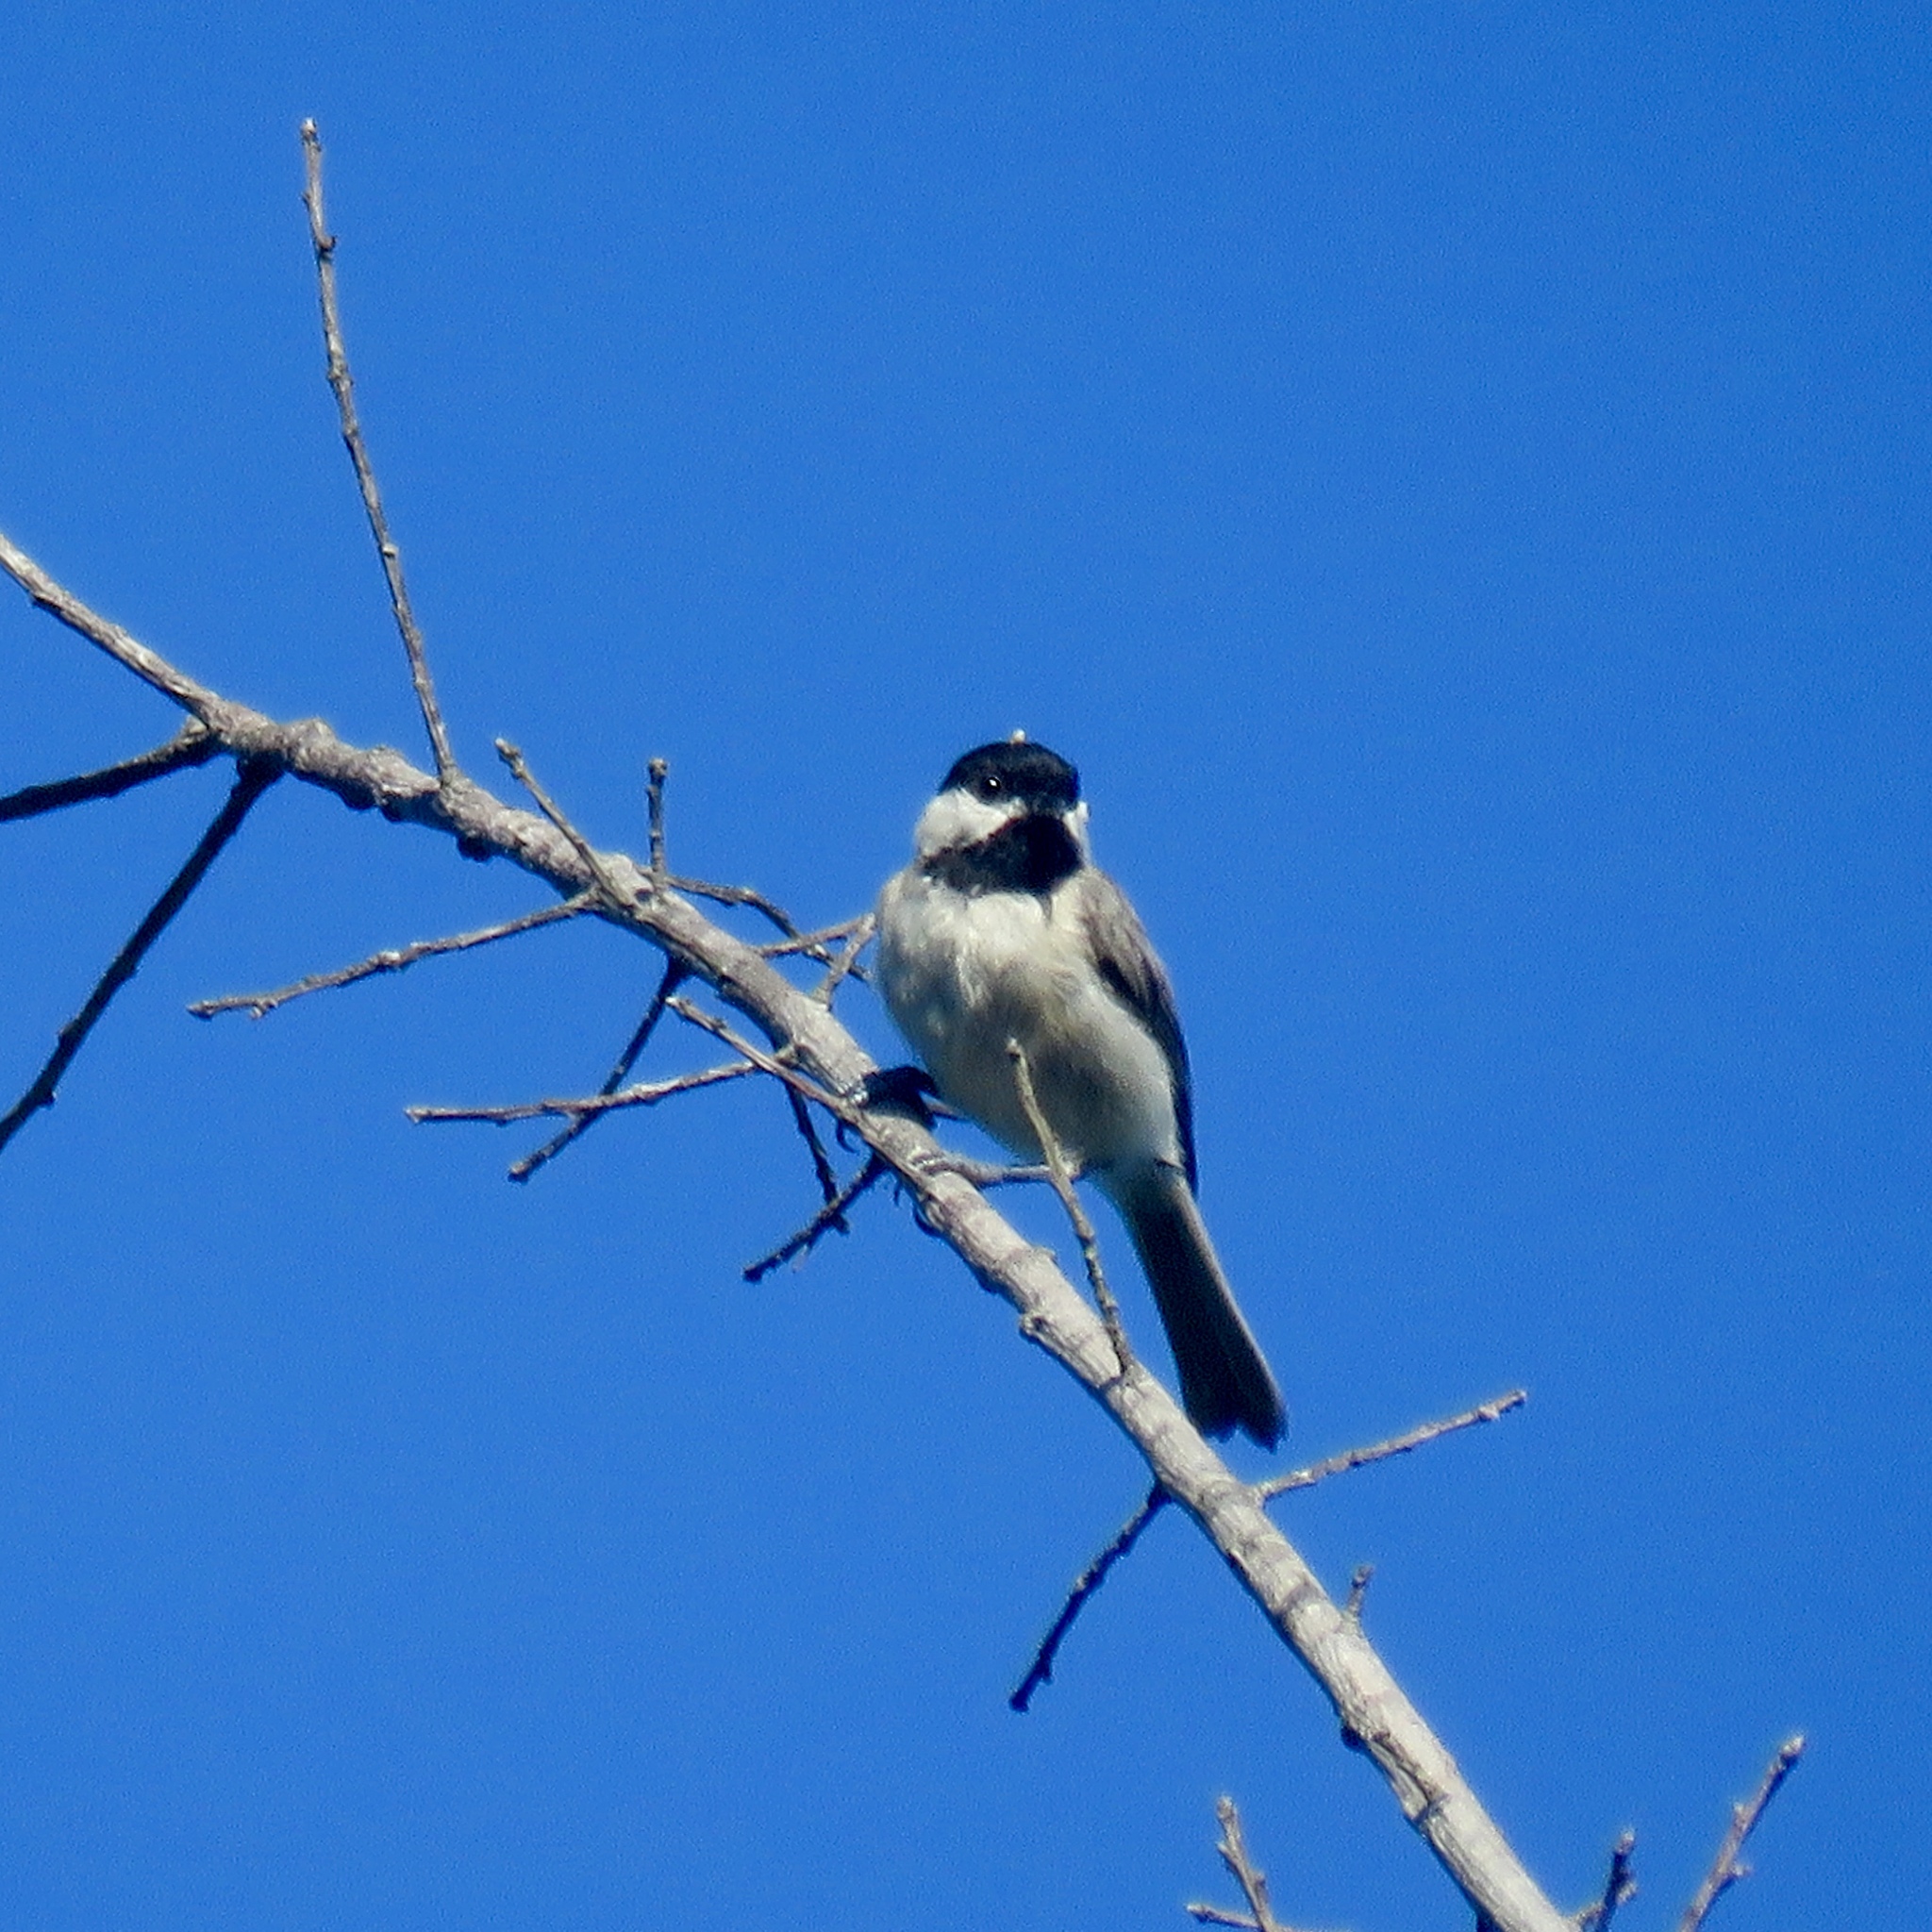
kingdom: Animalia
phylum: Chordata
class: Aves
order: Passeriformes
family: Paridae
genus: Poecile
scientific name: Poecile carolinensis
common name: Carolina chickadee
